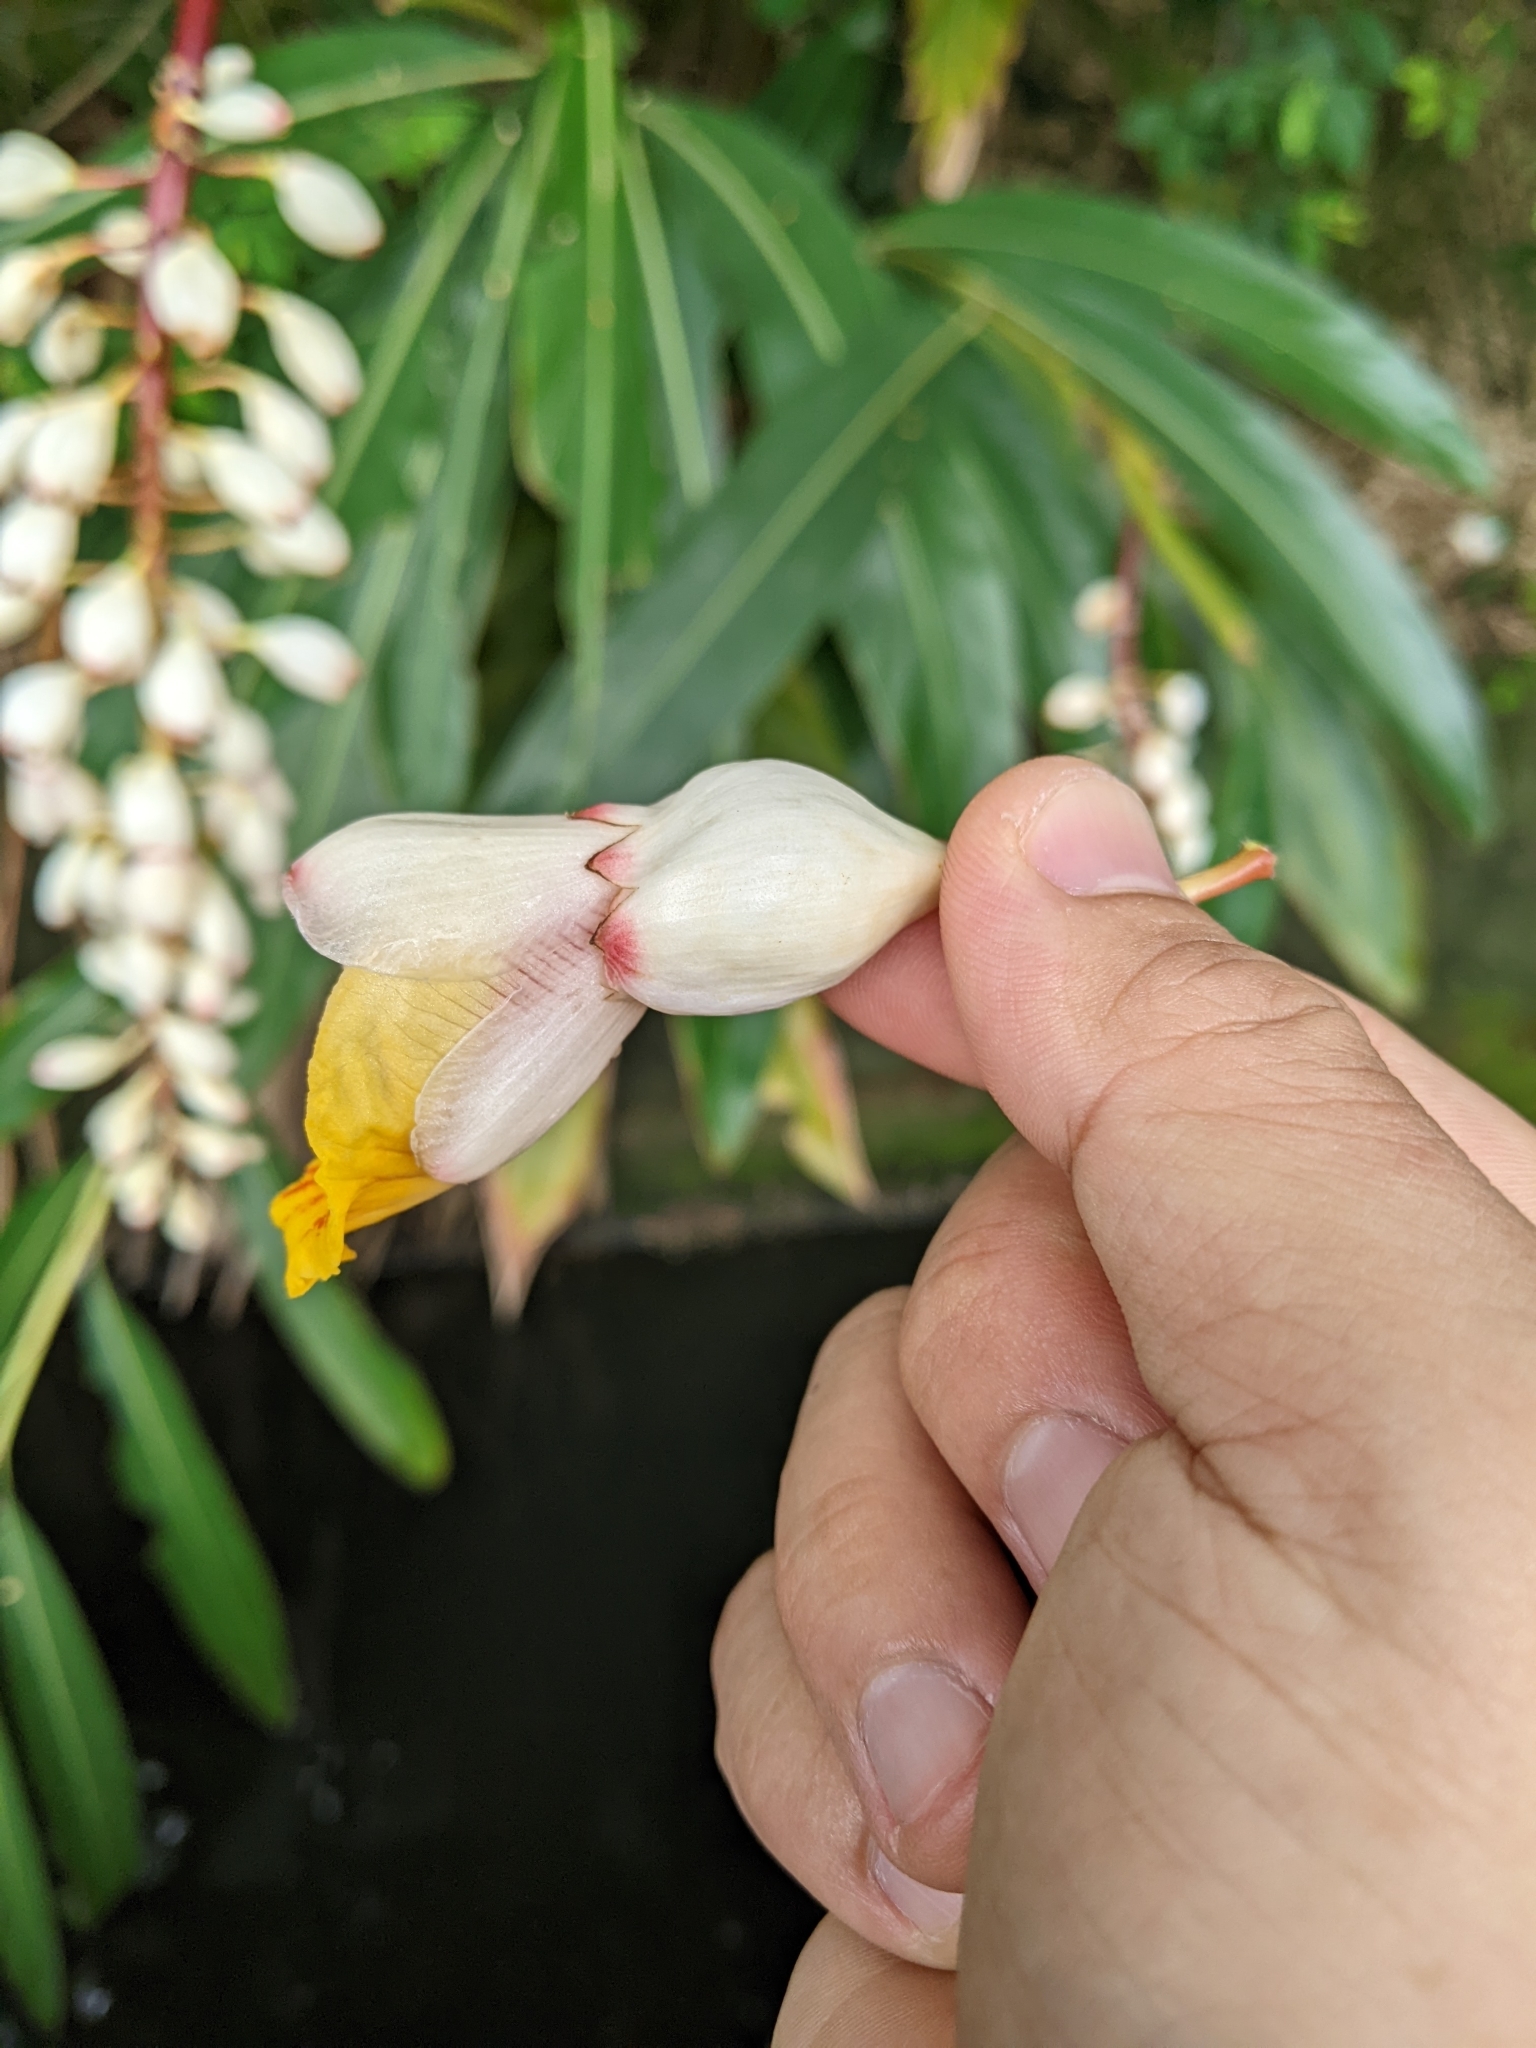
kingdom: Plantae
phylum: Tracheophyta
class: Liliopsida
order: Zingiberales
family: Zingiberaceae
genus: Alpinia
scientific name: Alpinia zerumbet
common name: Shellplant
